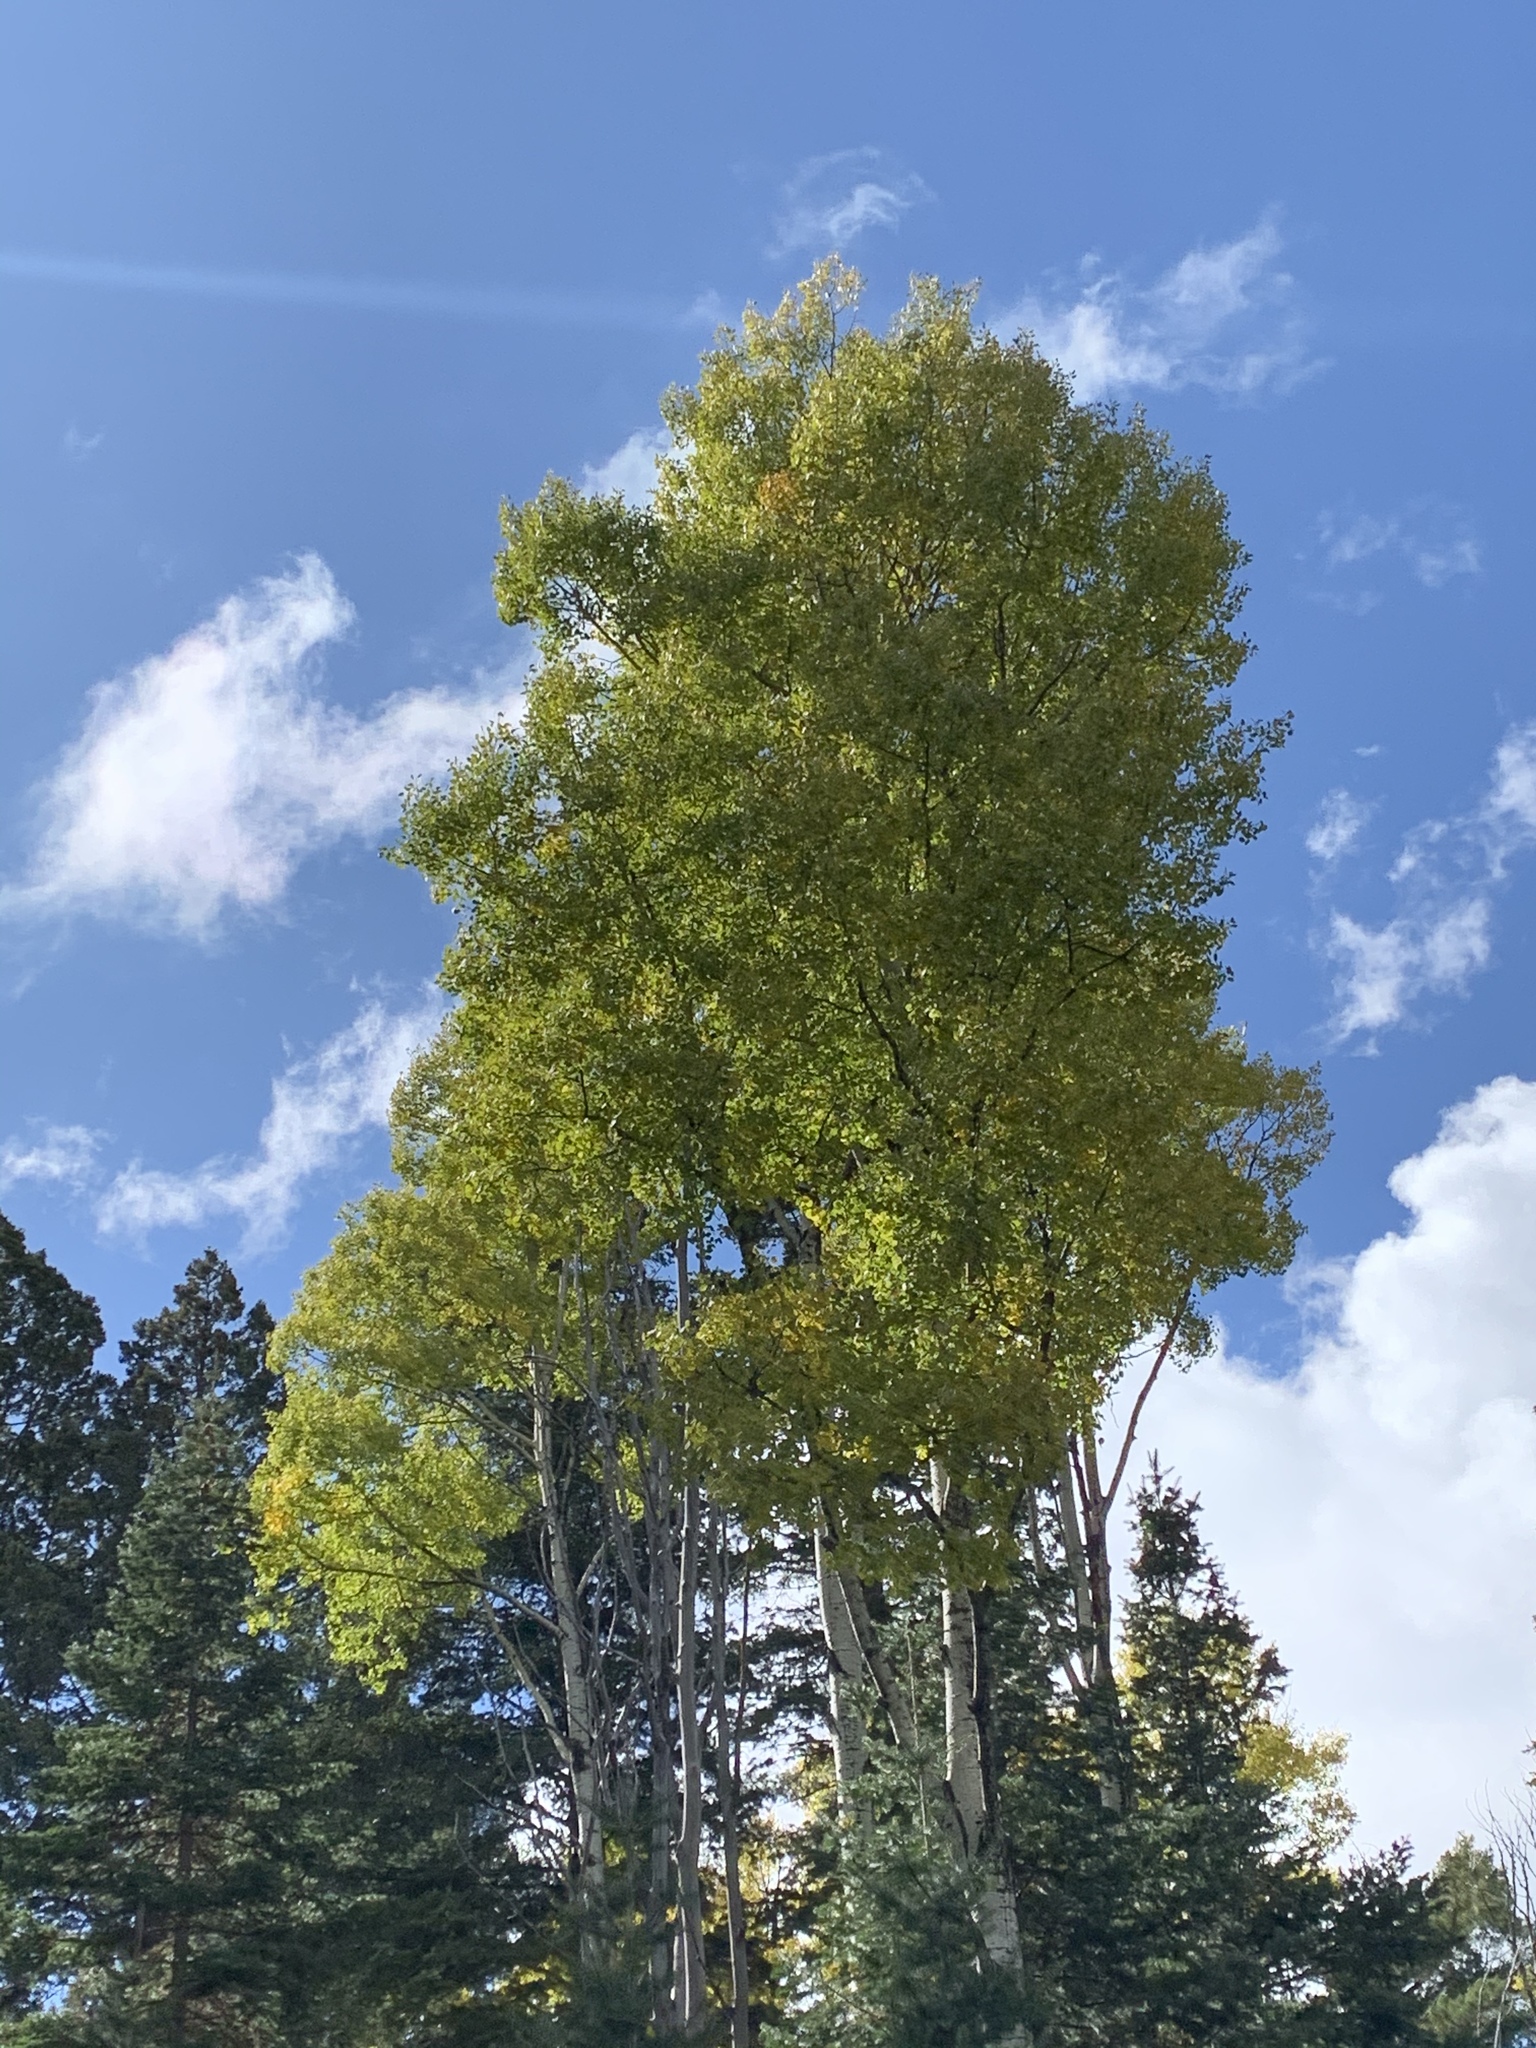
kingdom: Plantae
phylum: Tracheophyta
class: Magnoliopsida
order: Malpighiales
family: Salicaceae
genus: Populus
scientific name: Populus tremuloides
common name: Quaking aspen
